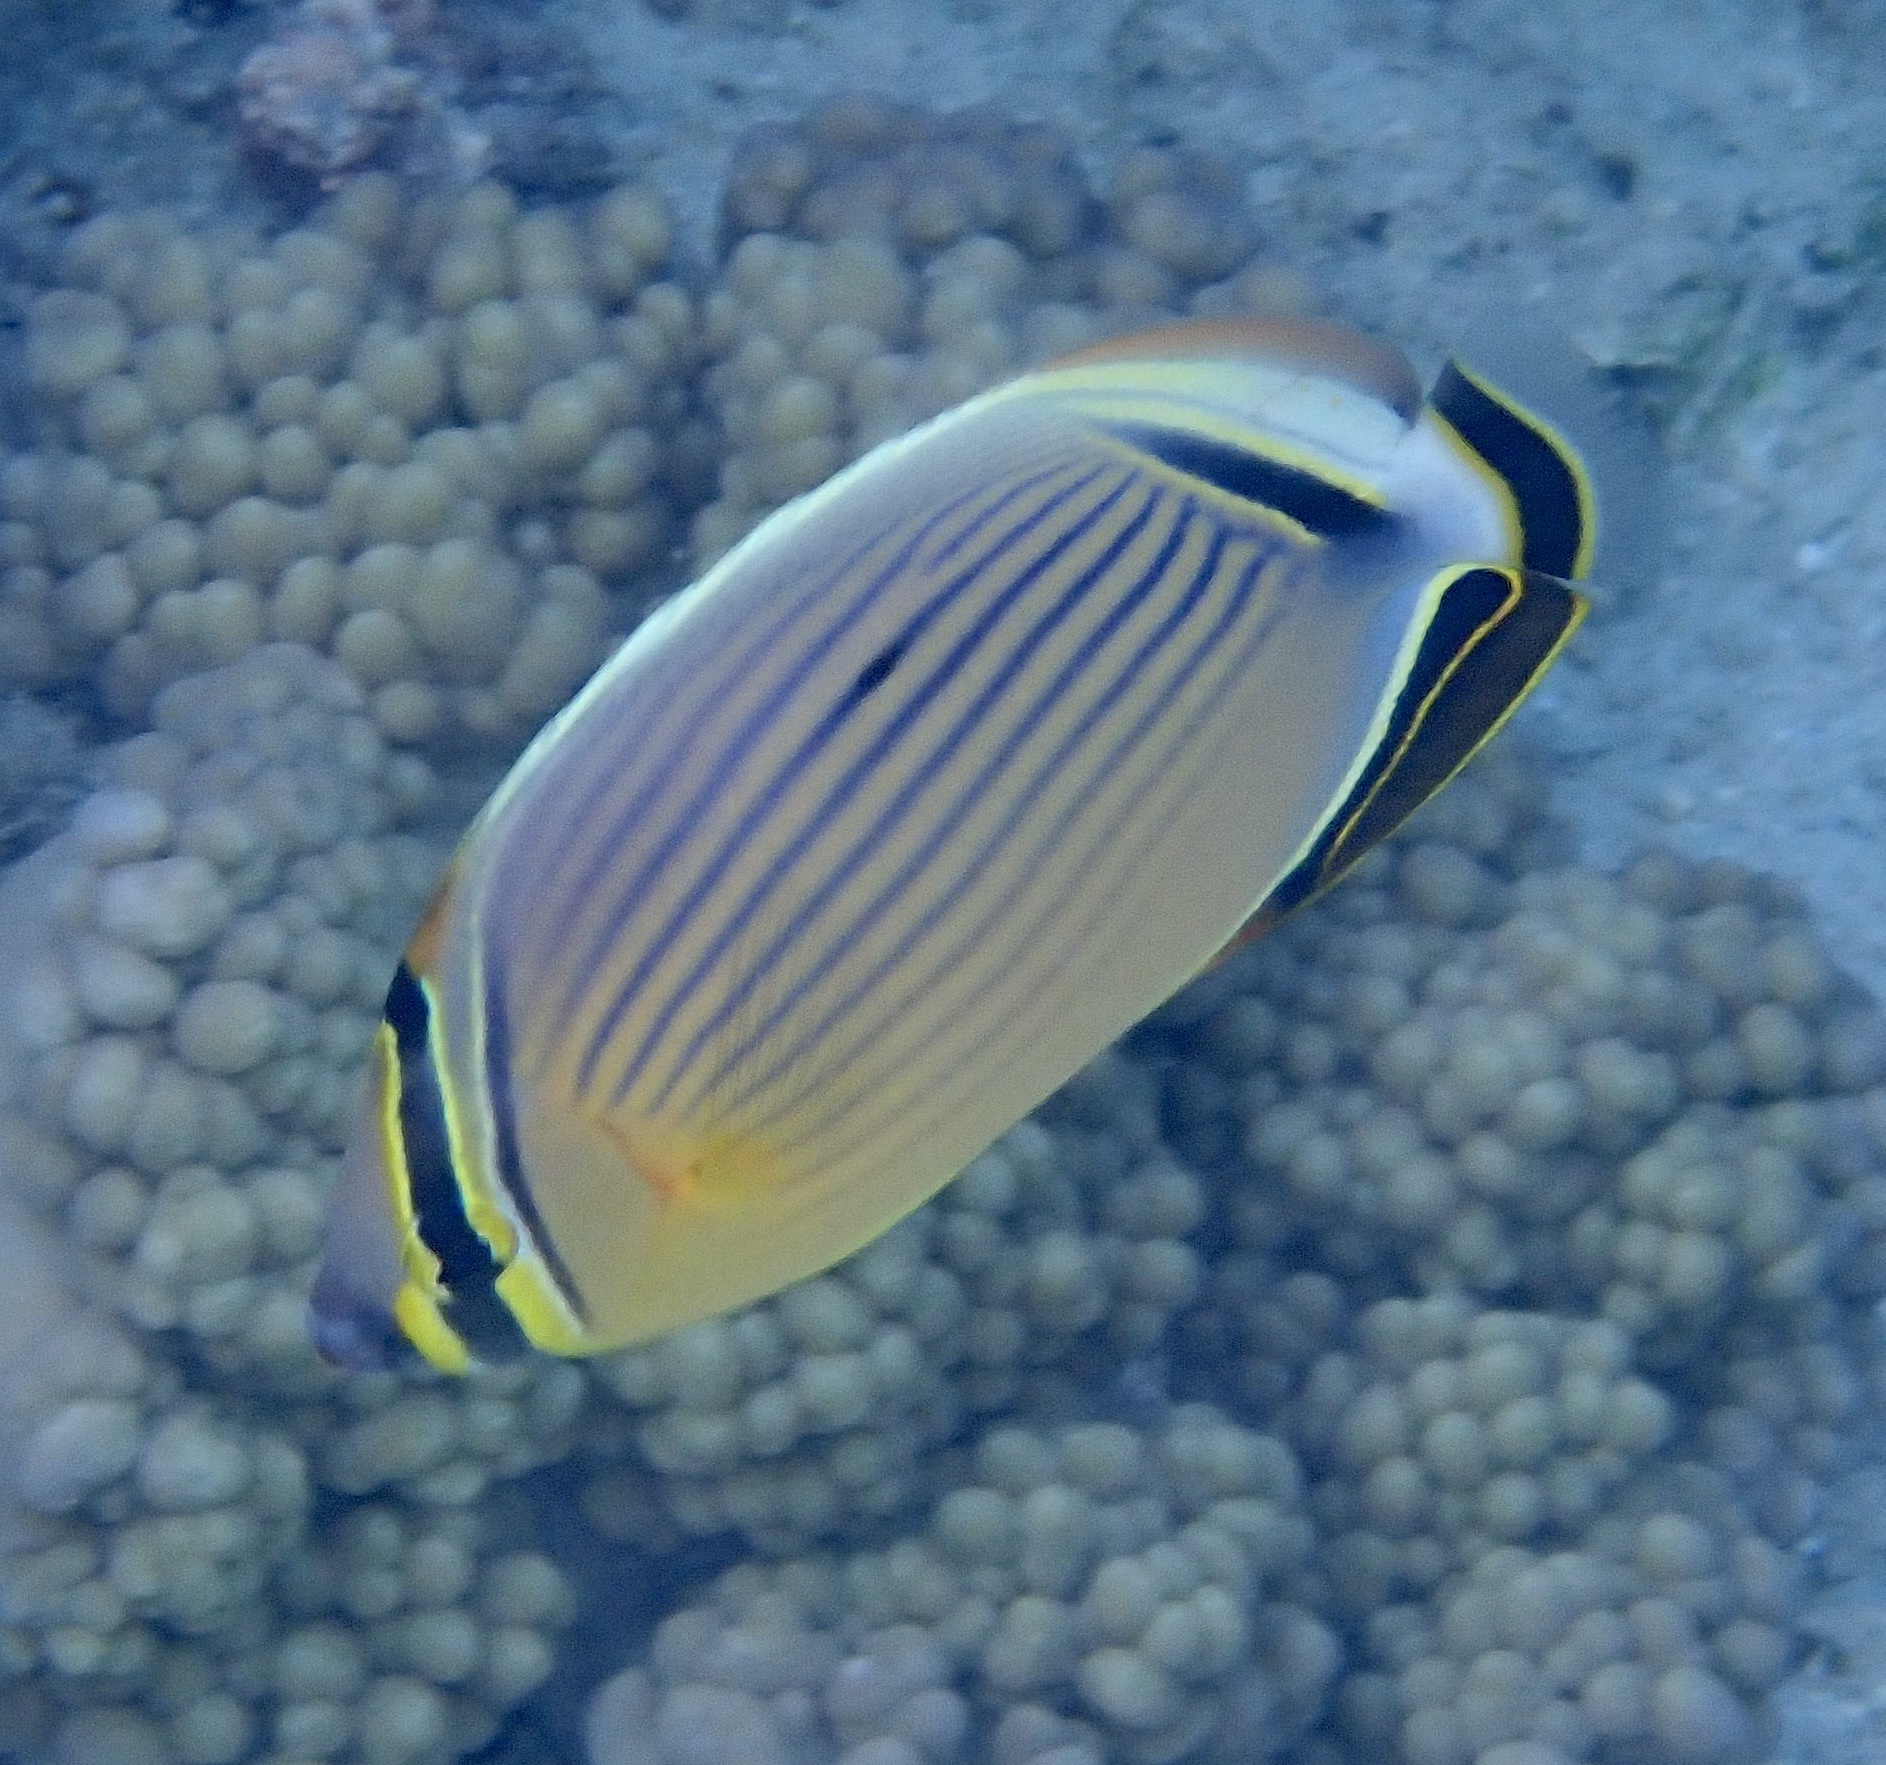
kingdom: Animalia
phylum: Chordata
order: Perciformes
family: Chaetodontidae
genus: Chaetodon
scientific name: Chaetodon lunulatus
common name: Redfin butterflyfish
